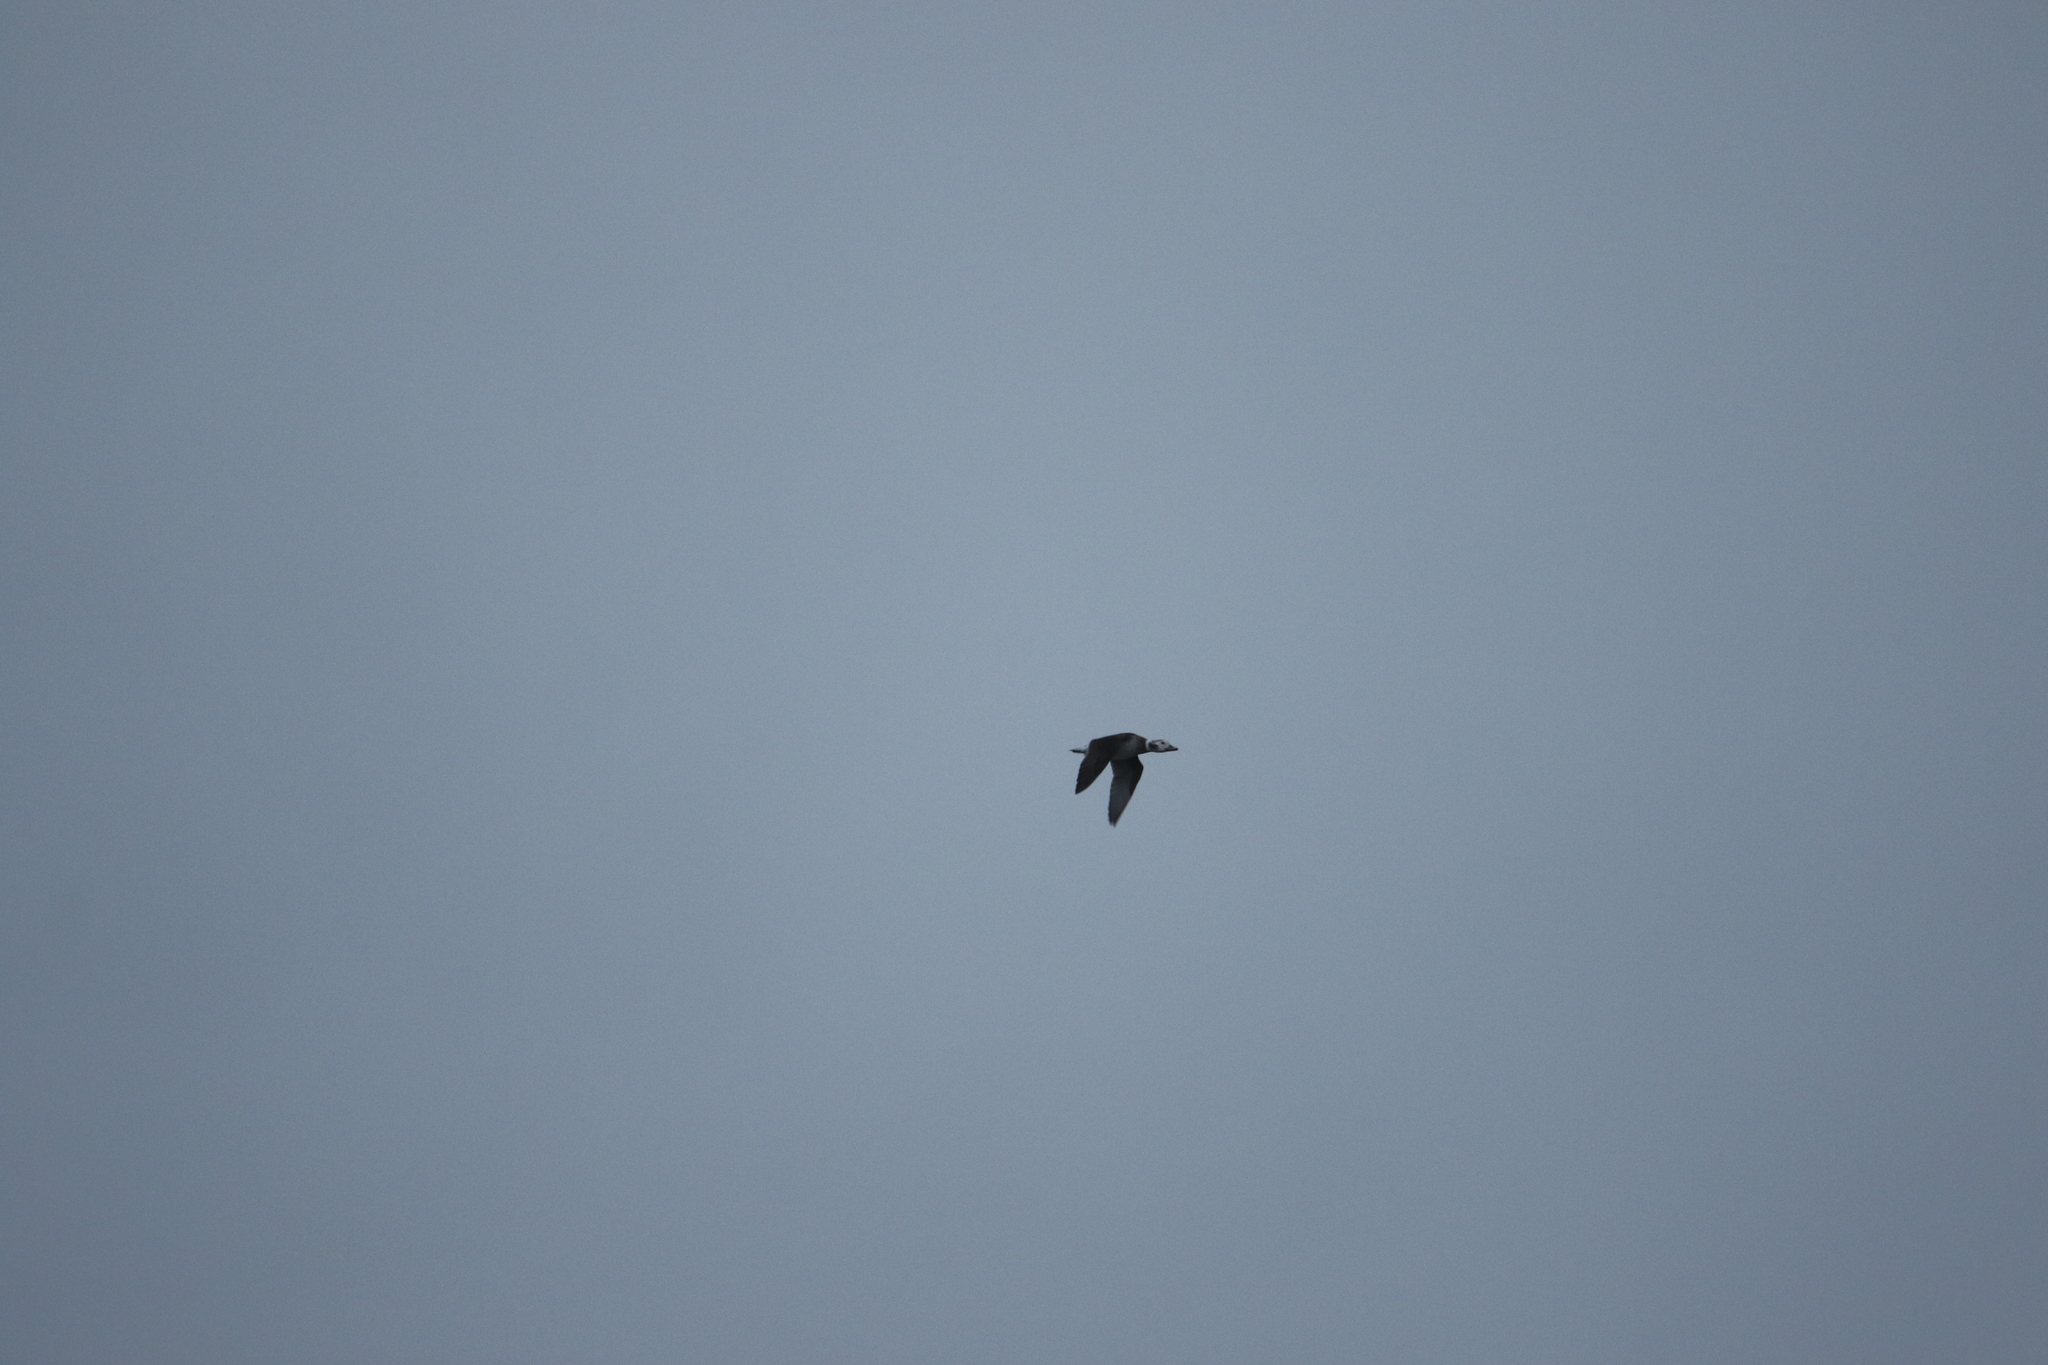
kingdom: Animalia
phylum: Chordata
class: Aves
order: Anseriformes
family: Anatidae
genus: Clangula
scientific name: Clangula hyemalis
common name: Long-tailed duck
